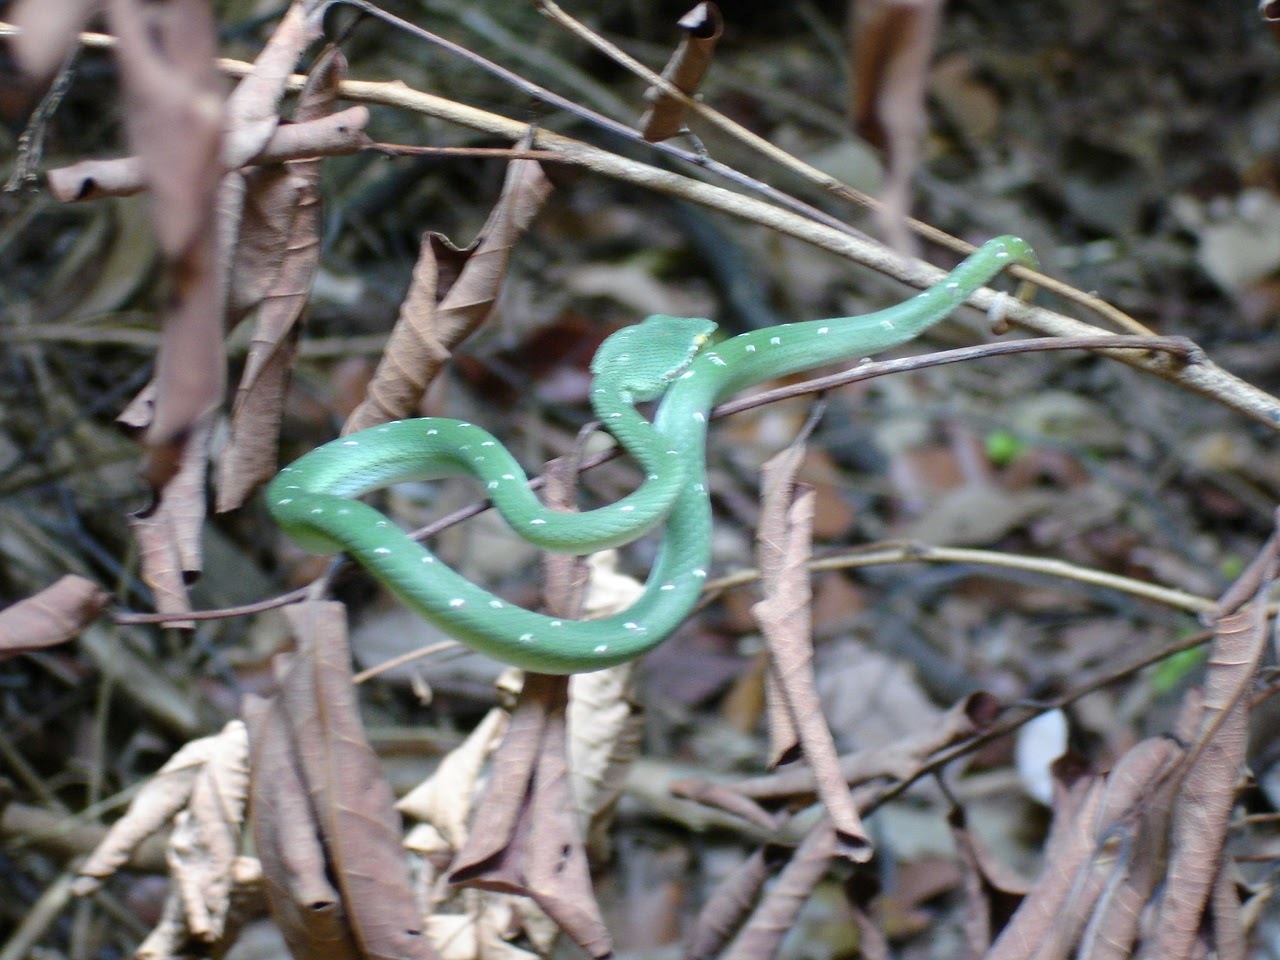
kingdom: Animalia
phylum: Chordata
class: Squamata
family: Viperidae
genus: Tropidolaemus
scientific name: Tropidolaemus wagleri
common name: Wagler's palm viper
